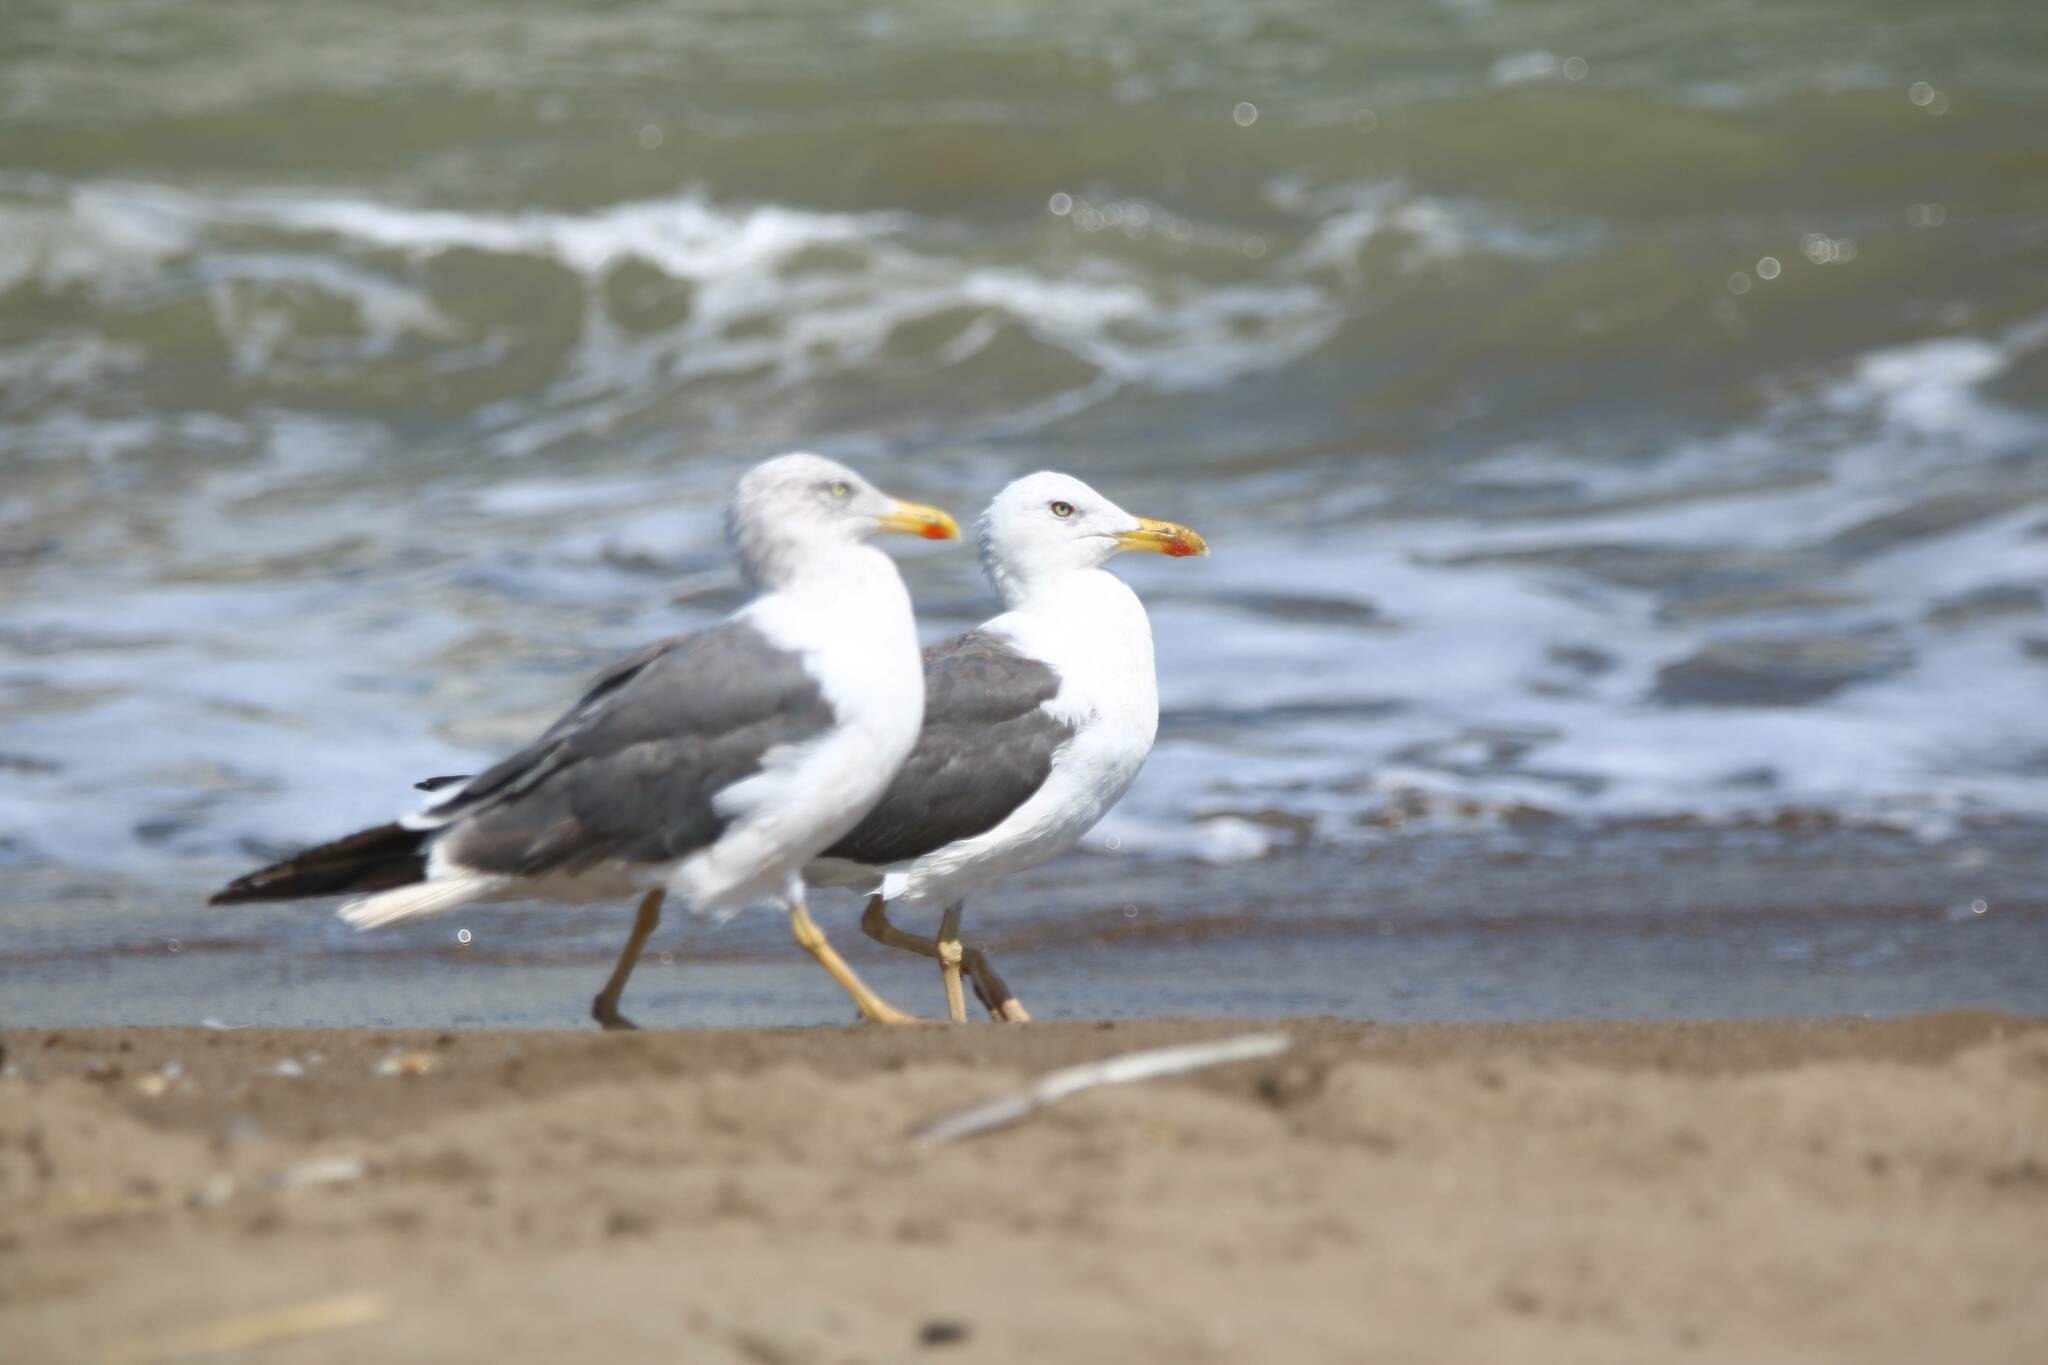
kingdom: Animalia
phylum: Chordata
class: Aves
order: Charadriiformes
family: Laridae
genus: Larus
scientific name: Larus fuscus
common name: Lesser black-backed gull
